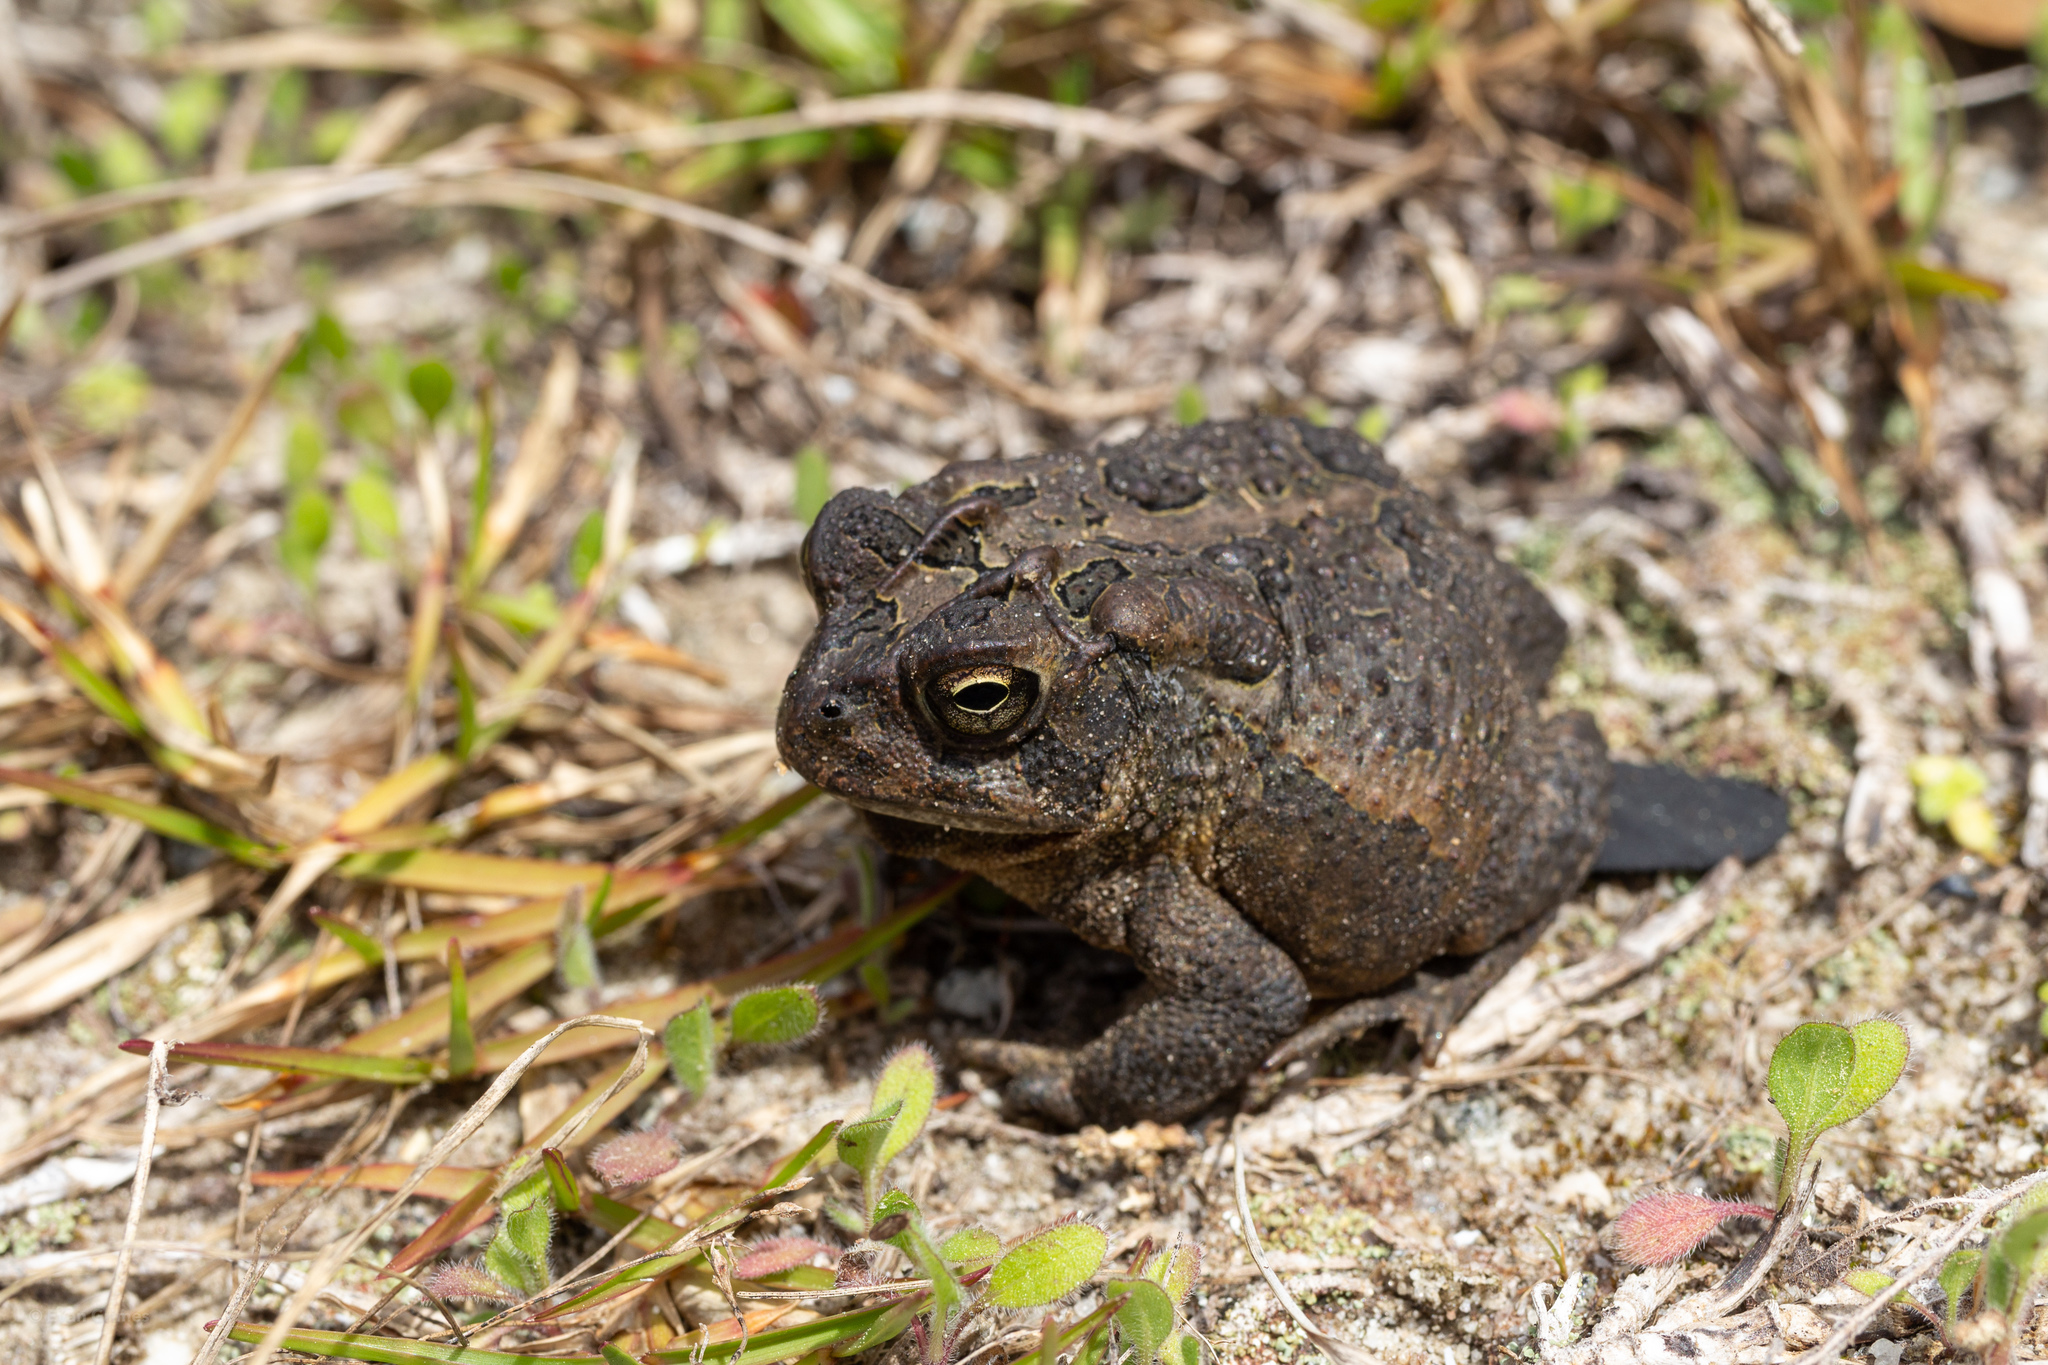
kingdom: Animalia
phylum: Chordata
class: Amphibia
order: Anura
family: Bufonidae
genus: Anaxyrus
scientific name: Anaxyrus terrestris
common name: Southern toad
